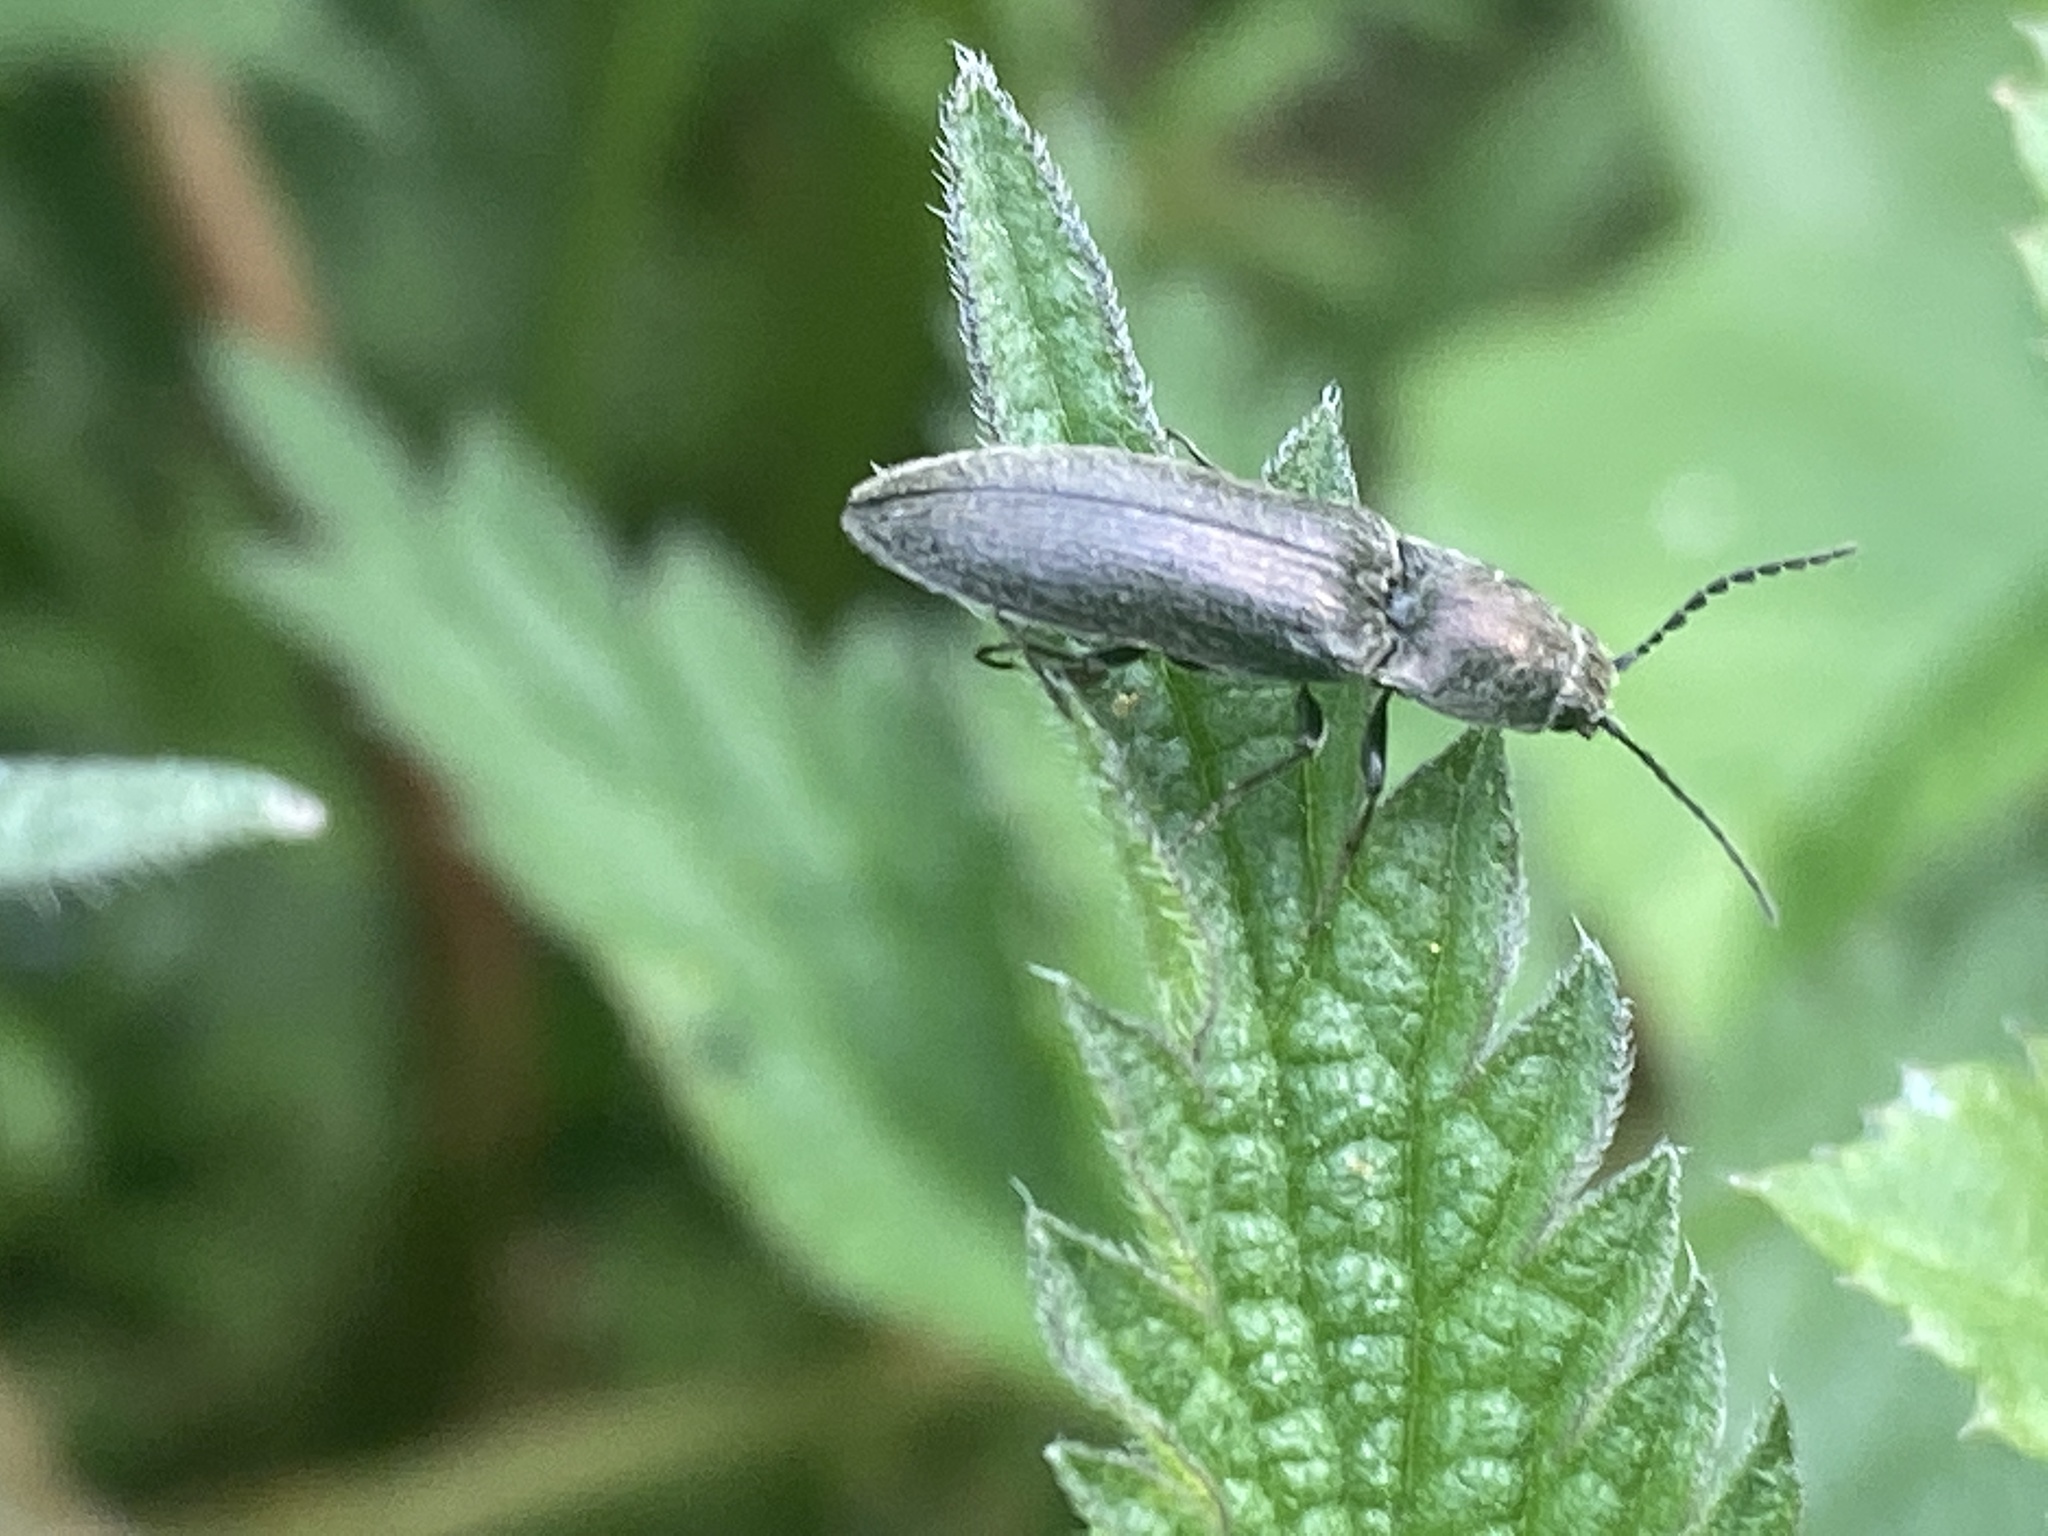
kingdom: Animalia
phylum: Arthropoda
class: Insecta
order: Coleoptera
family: Elateridae
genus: Cidnopus
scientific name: Cidnopus aeruginosus
